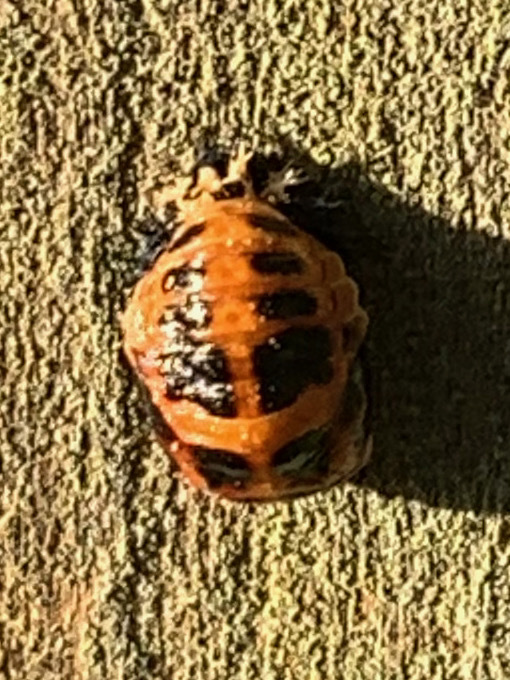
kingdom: Animalia
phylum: Arthropoda
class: Insecta
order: Coleoptera
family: Coccinellidae
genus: Harmonia
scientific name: Harmonia axyridis
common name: Harlequin ladybird
